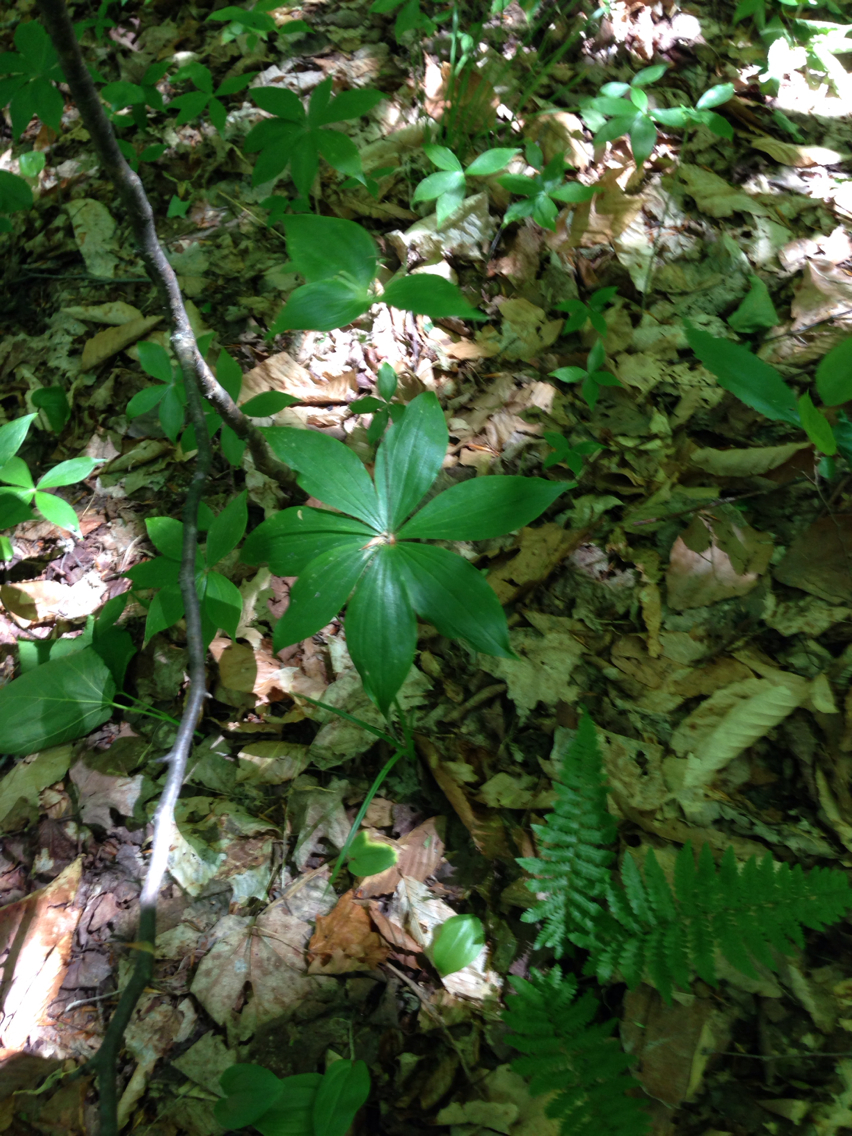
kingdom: Plantae
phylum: Tracheophyta
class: Liliopsida
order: Liliales
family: Liliaceae
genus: Medeola
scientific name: Medeola virginiana
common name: Indian cucumber-root
